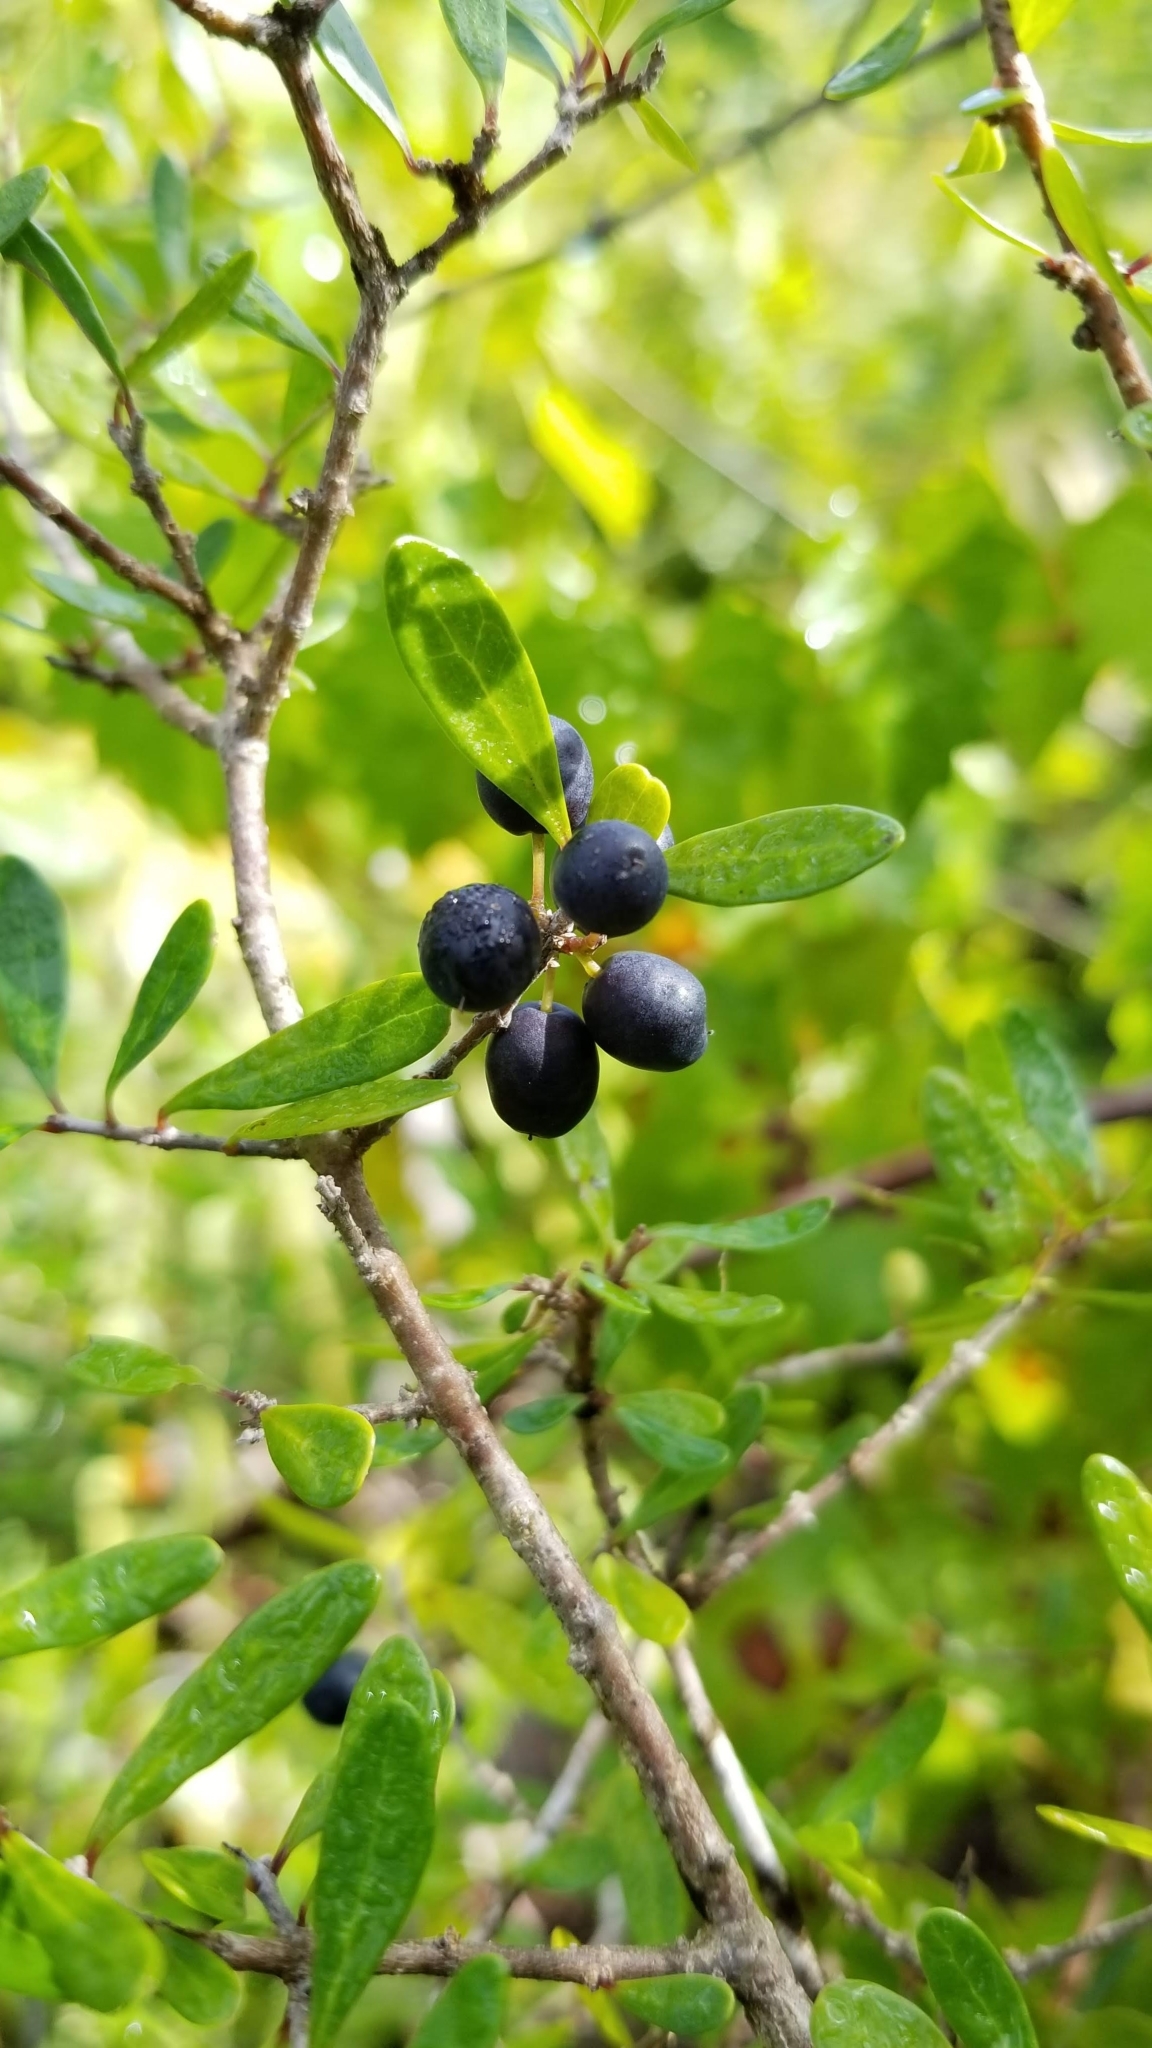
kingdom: Plantae
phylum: Tracheophyta
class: Magnoliopsida
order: Lamiales
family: Oleaceae
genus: Forestiera
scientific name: Forestiera segregata
